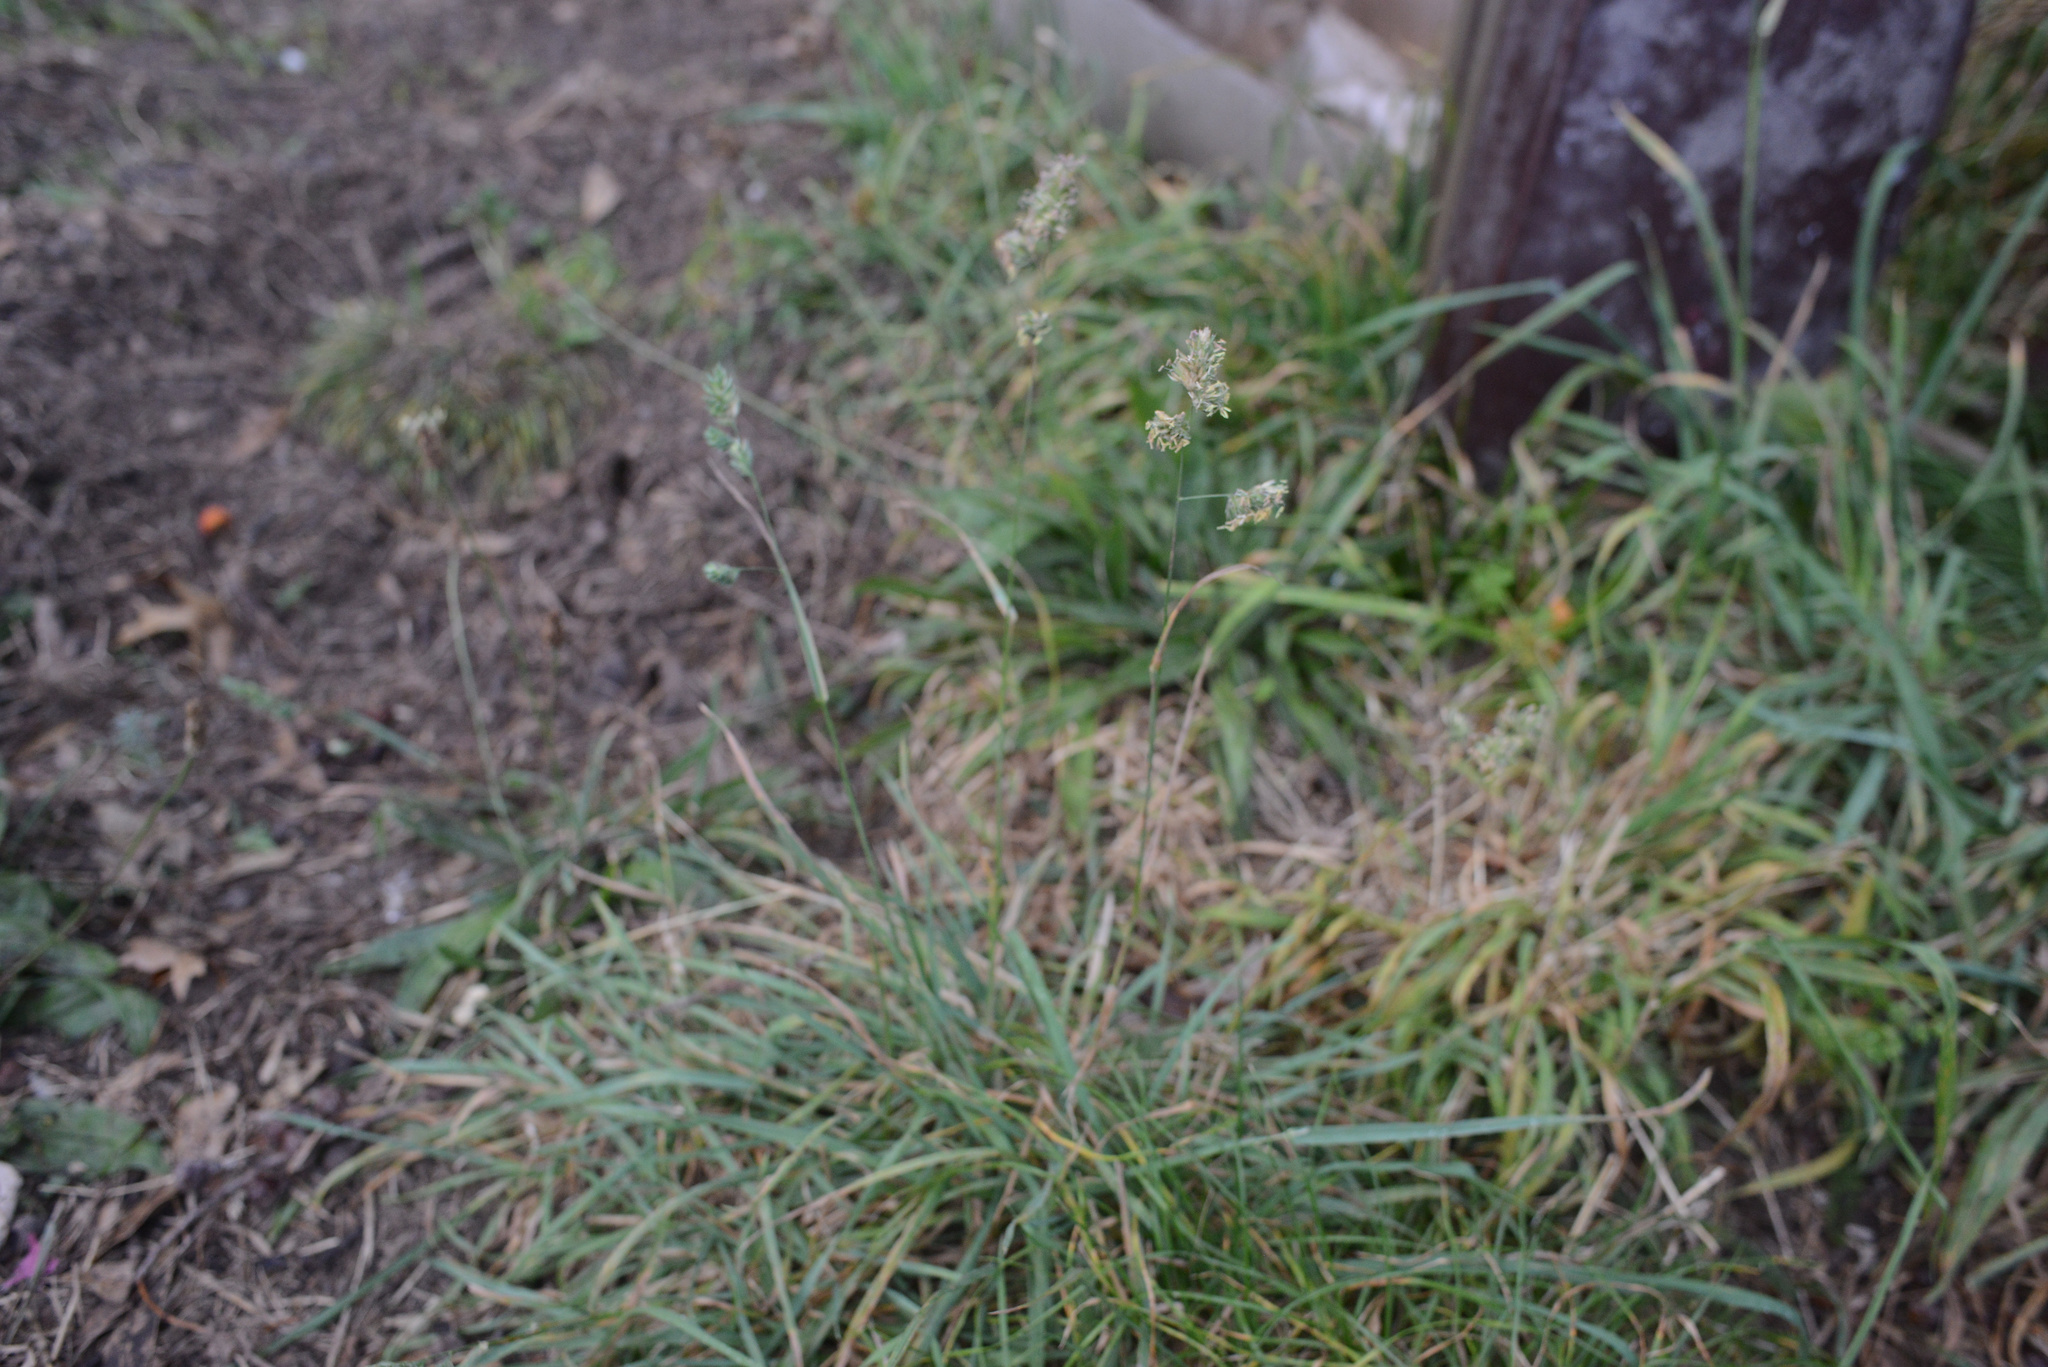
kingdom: Plantae
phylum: Tracheophyta
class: Liliopsida
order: Poales
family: Poaceae
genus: Dactylis
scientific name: Dactylis glomerata
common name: Orchardgrass
